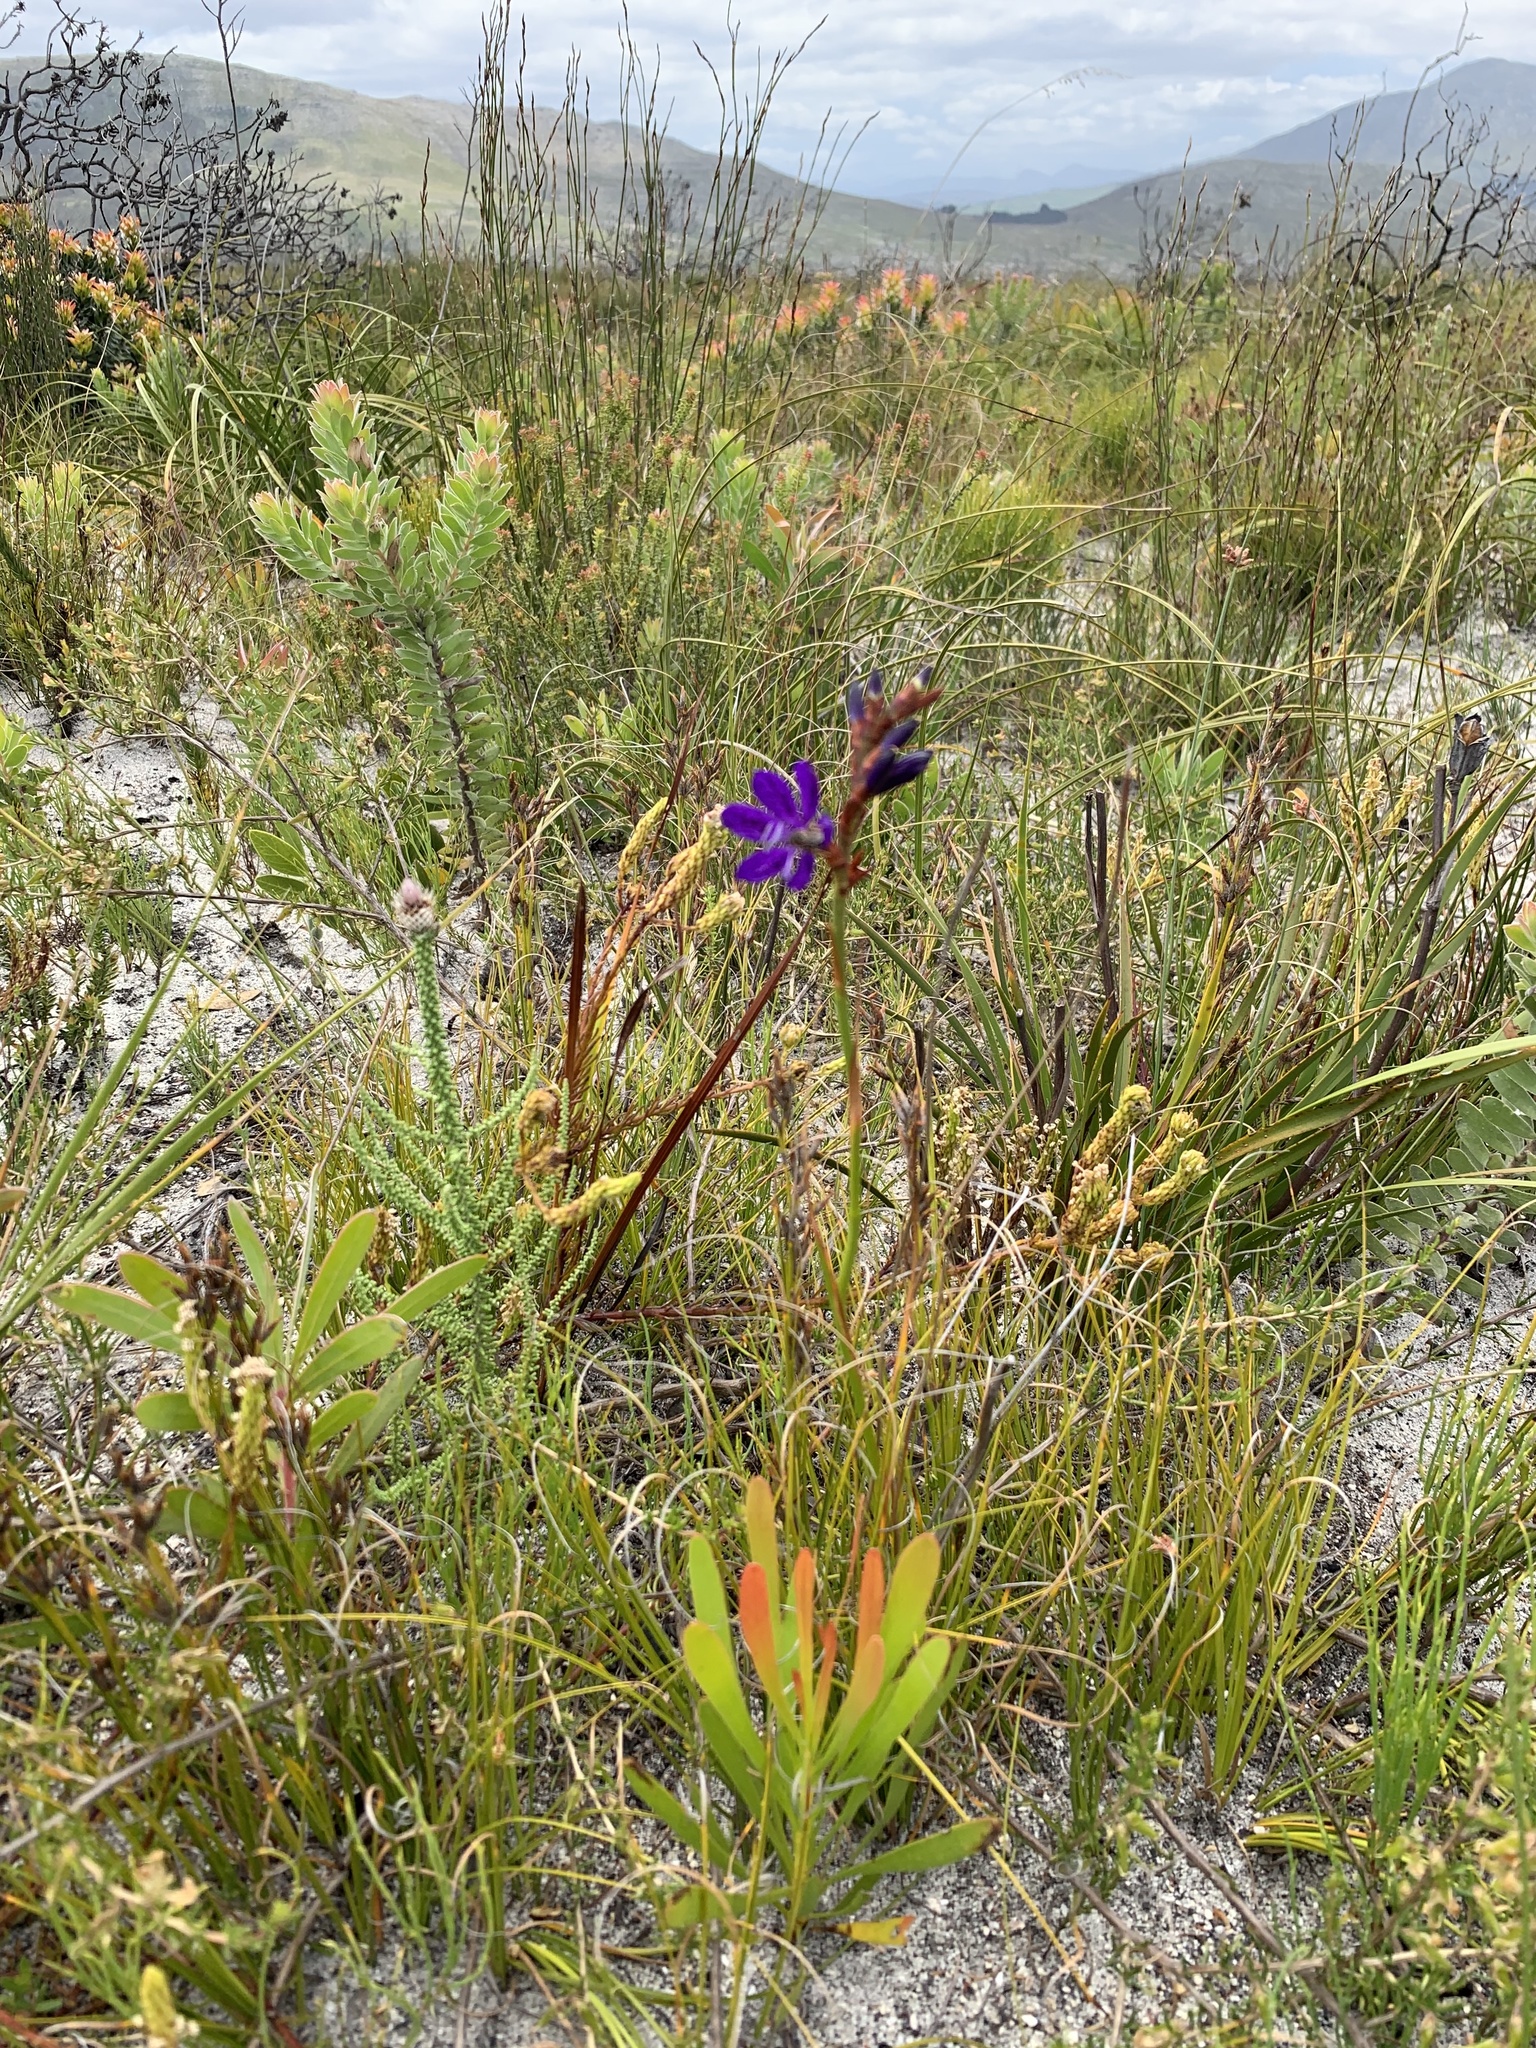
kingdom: Plantae
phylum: Tracheophyta
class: Liliopsida
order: Asparagales
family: Iridaceae
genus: Thereianthus
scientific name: Thereianthus bracteolatus
